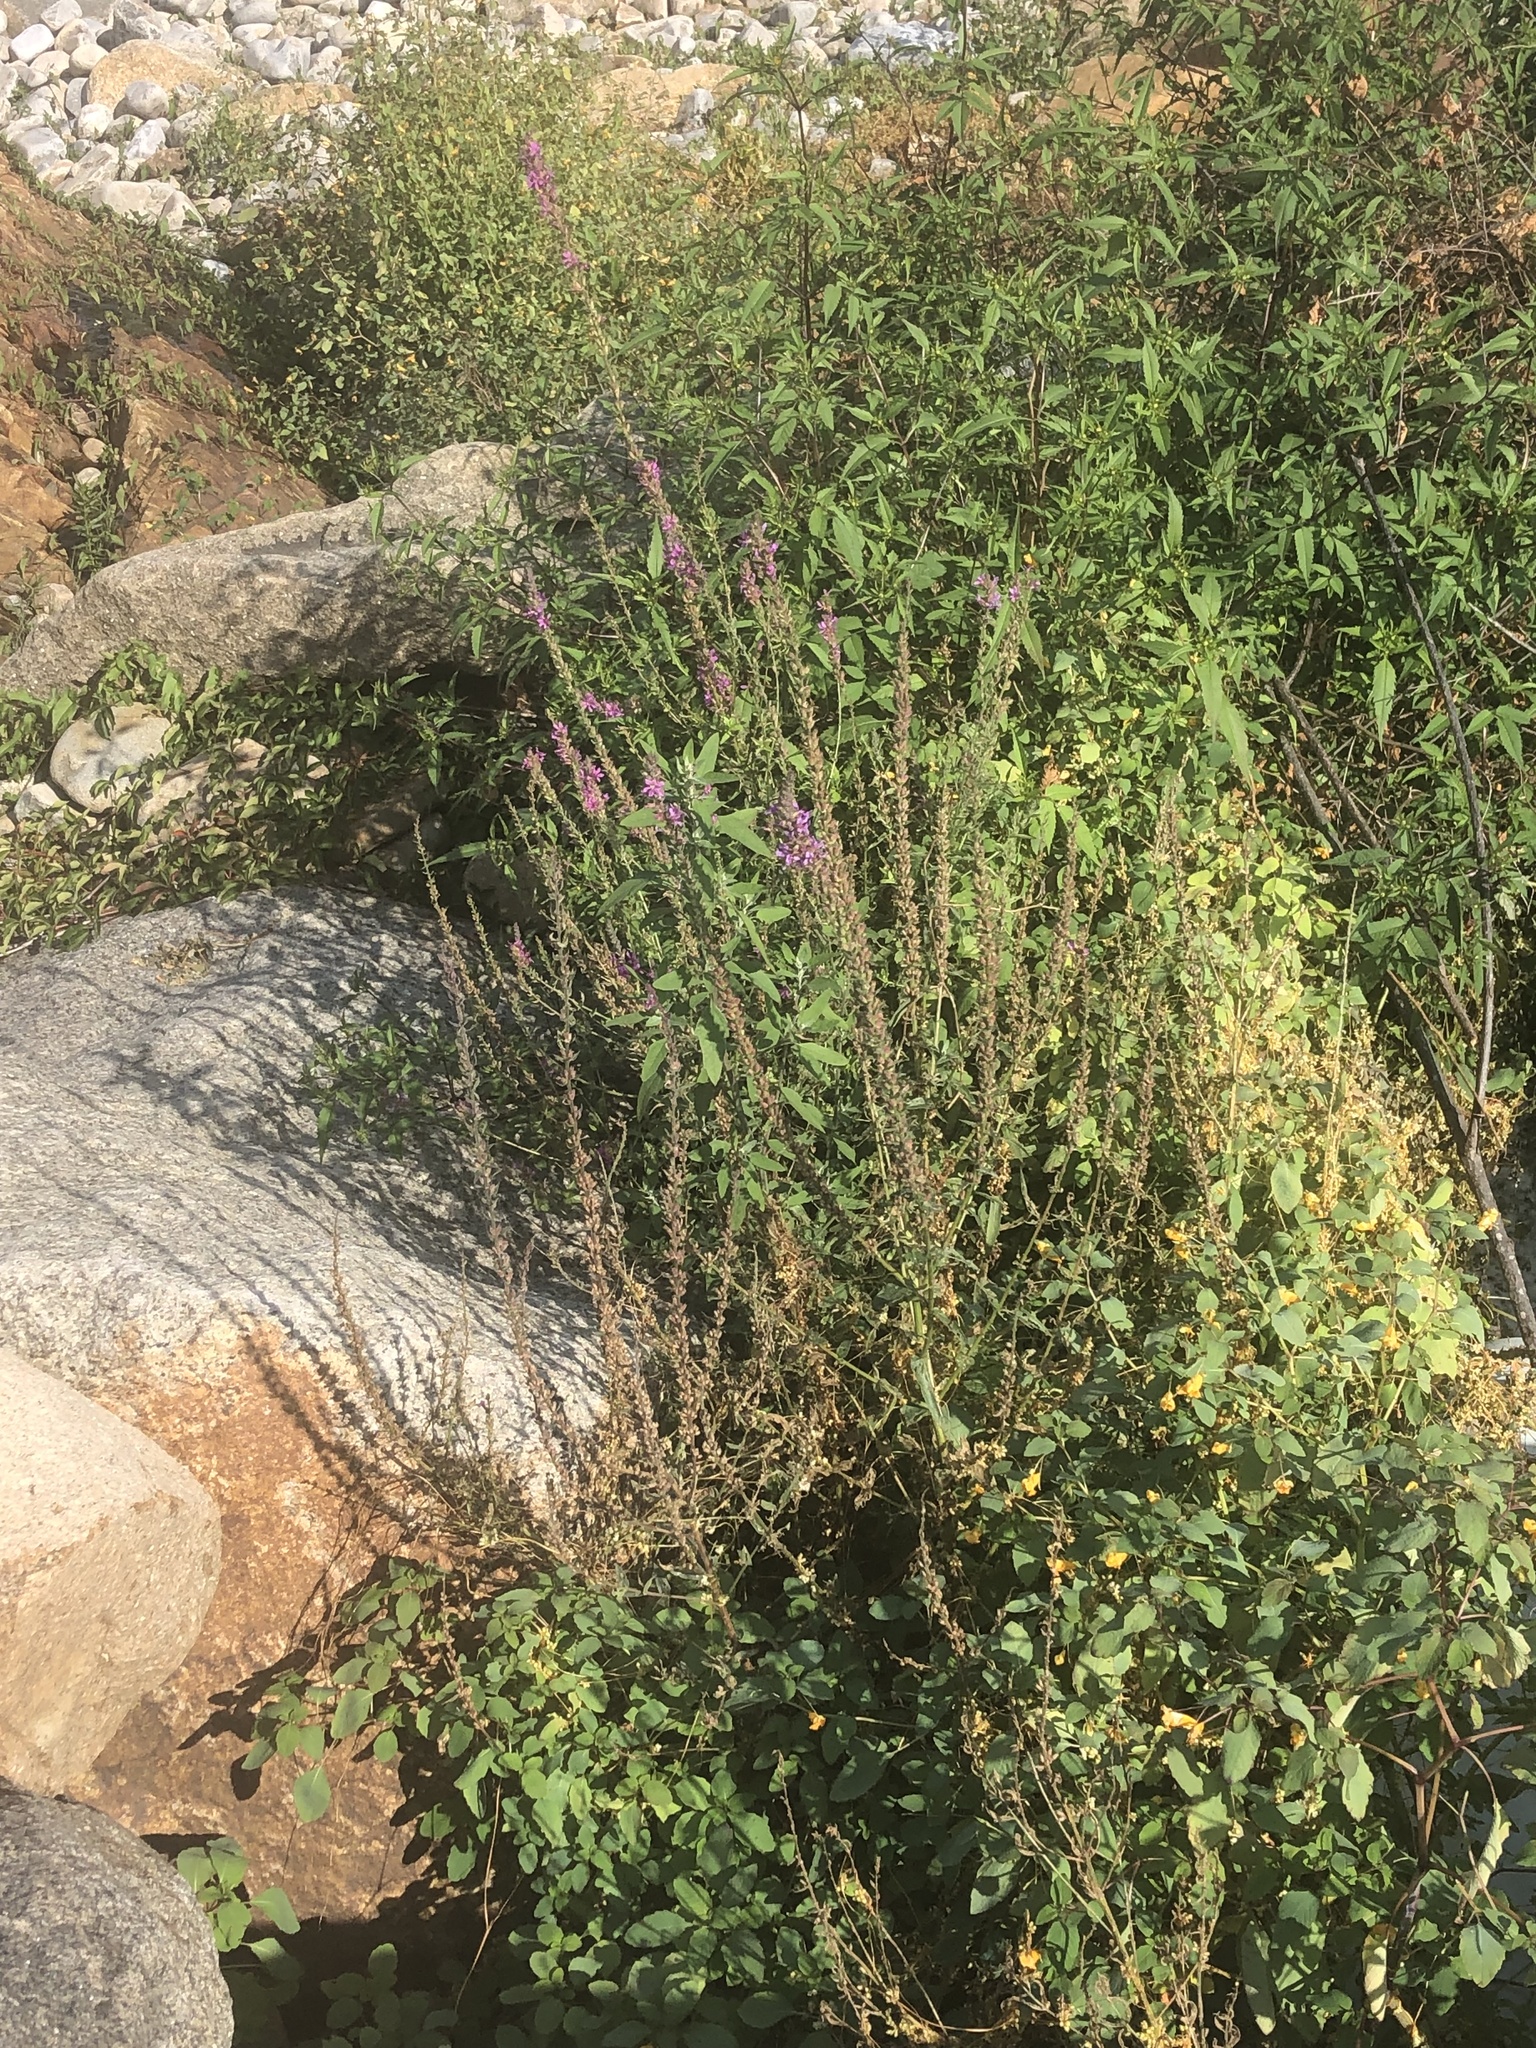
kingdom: Plantae
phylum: Tracheophyta
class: Magnoliopsida
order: Myrtales
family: Lythraceae
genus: Lythrum
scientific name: Lythrum salicaria
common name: Purple loosestrife
